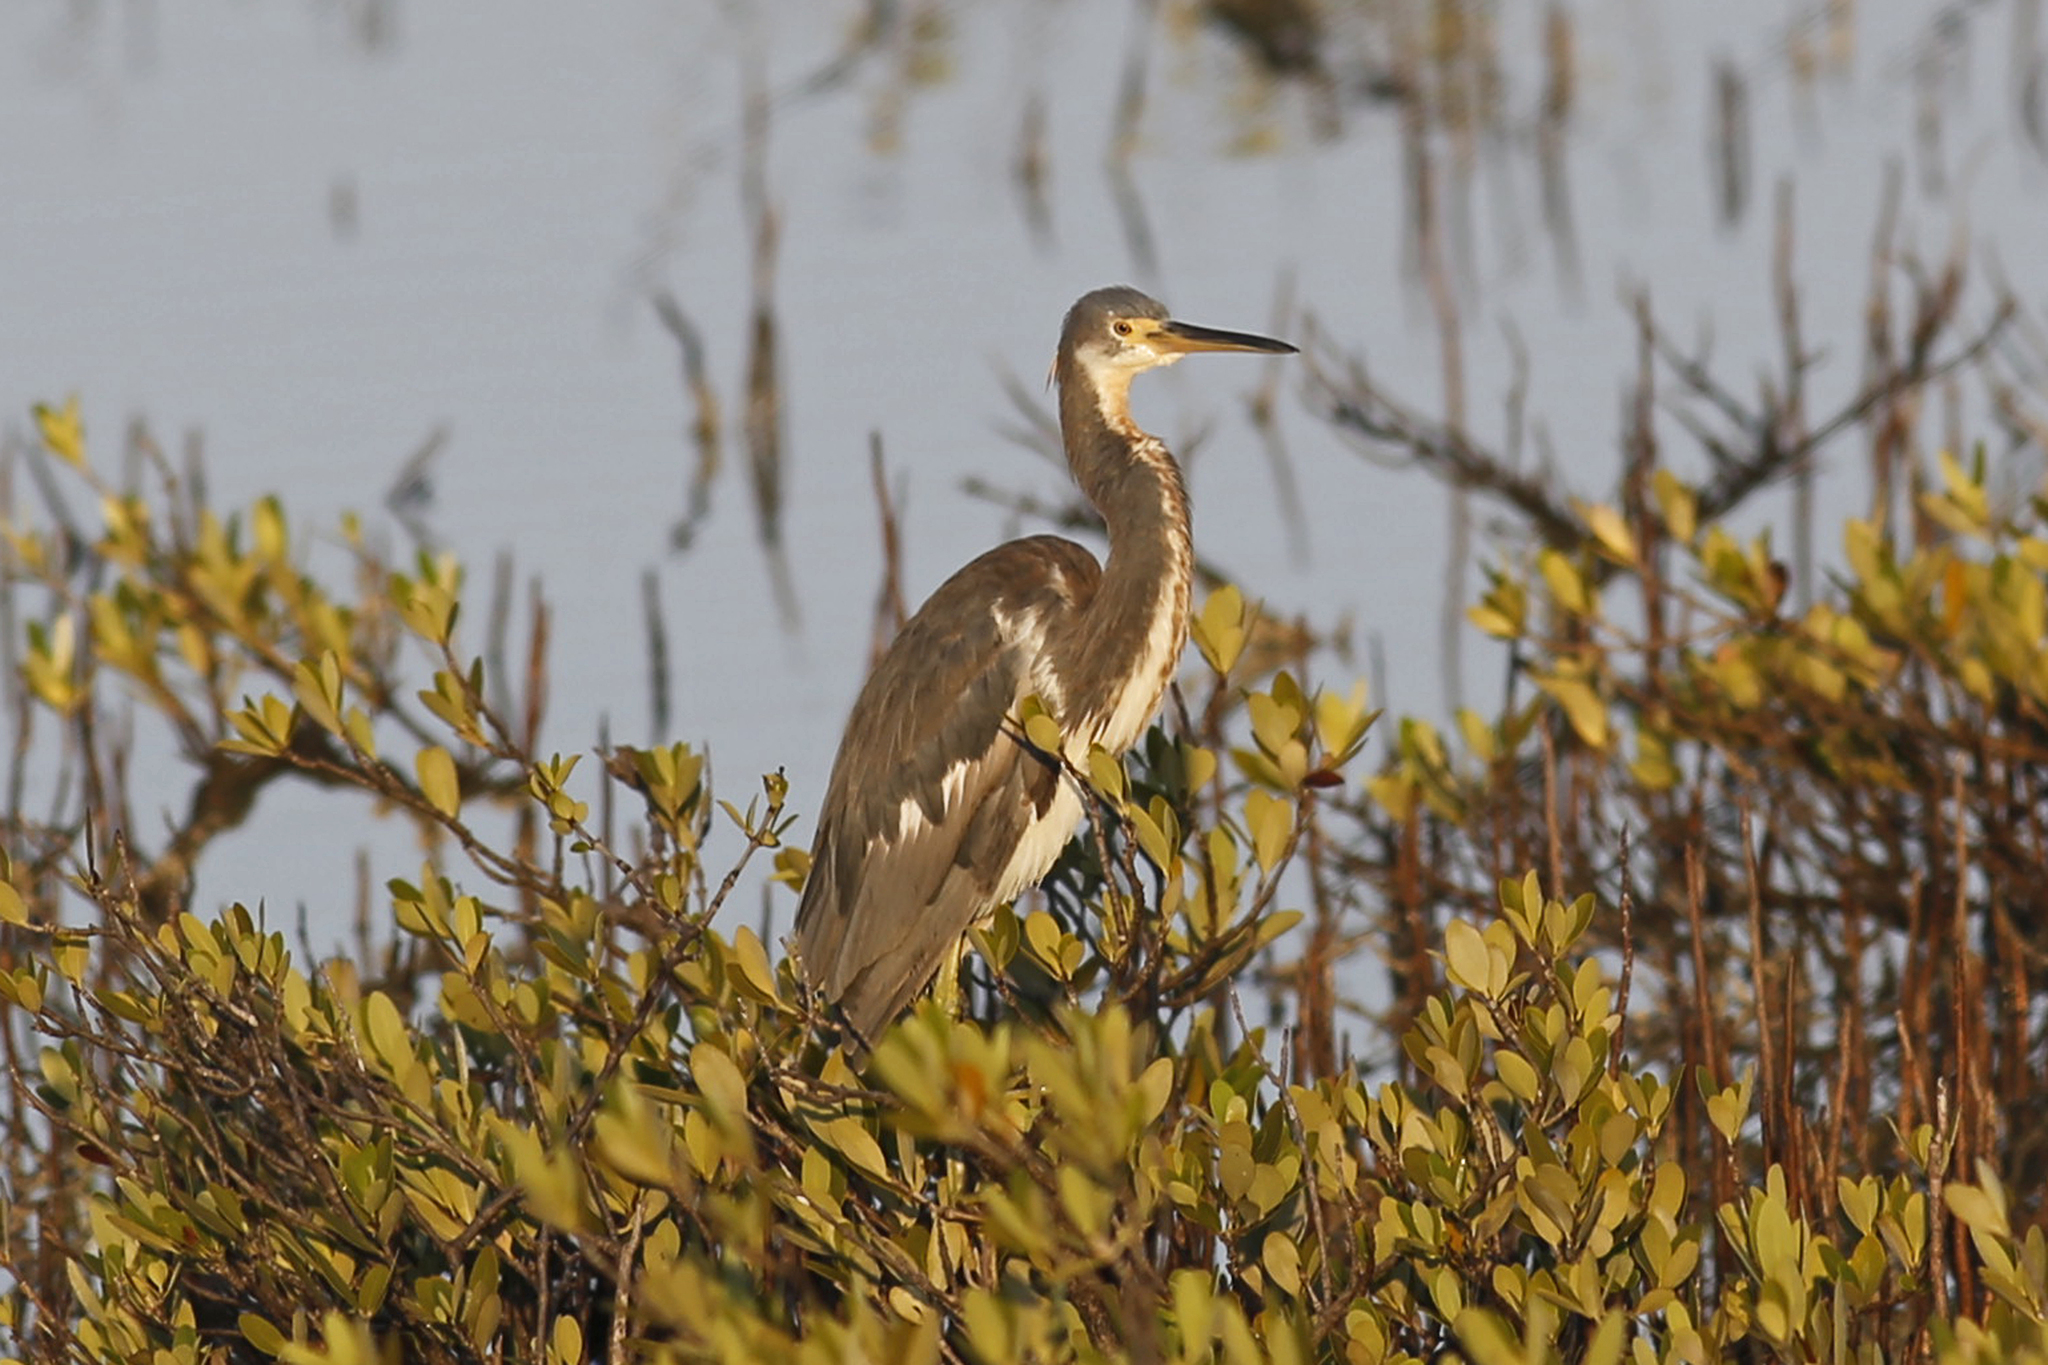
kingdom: Animalia
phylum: Chordata
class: Aves
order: Pelecaniformes
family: Ardeidae
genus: Egretta
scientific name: Egretta tricolor
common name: Tricolored heron
